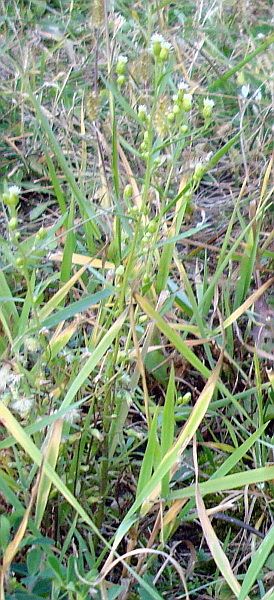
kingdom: Plantae
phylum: Tracheophyta
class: Magnoliopsida
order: Asterales
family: Asteraceae
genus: Erigeron
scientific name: Erigeron canadensis
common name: Canadian fleabane
